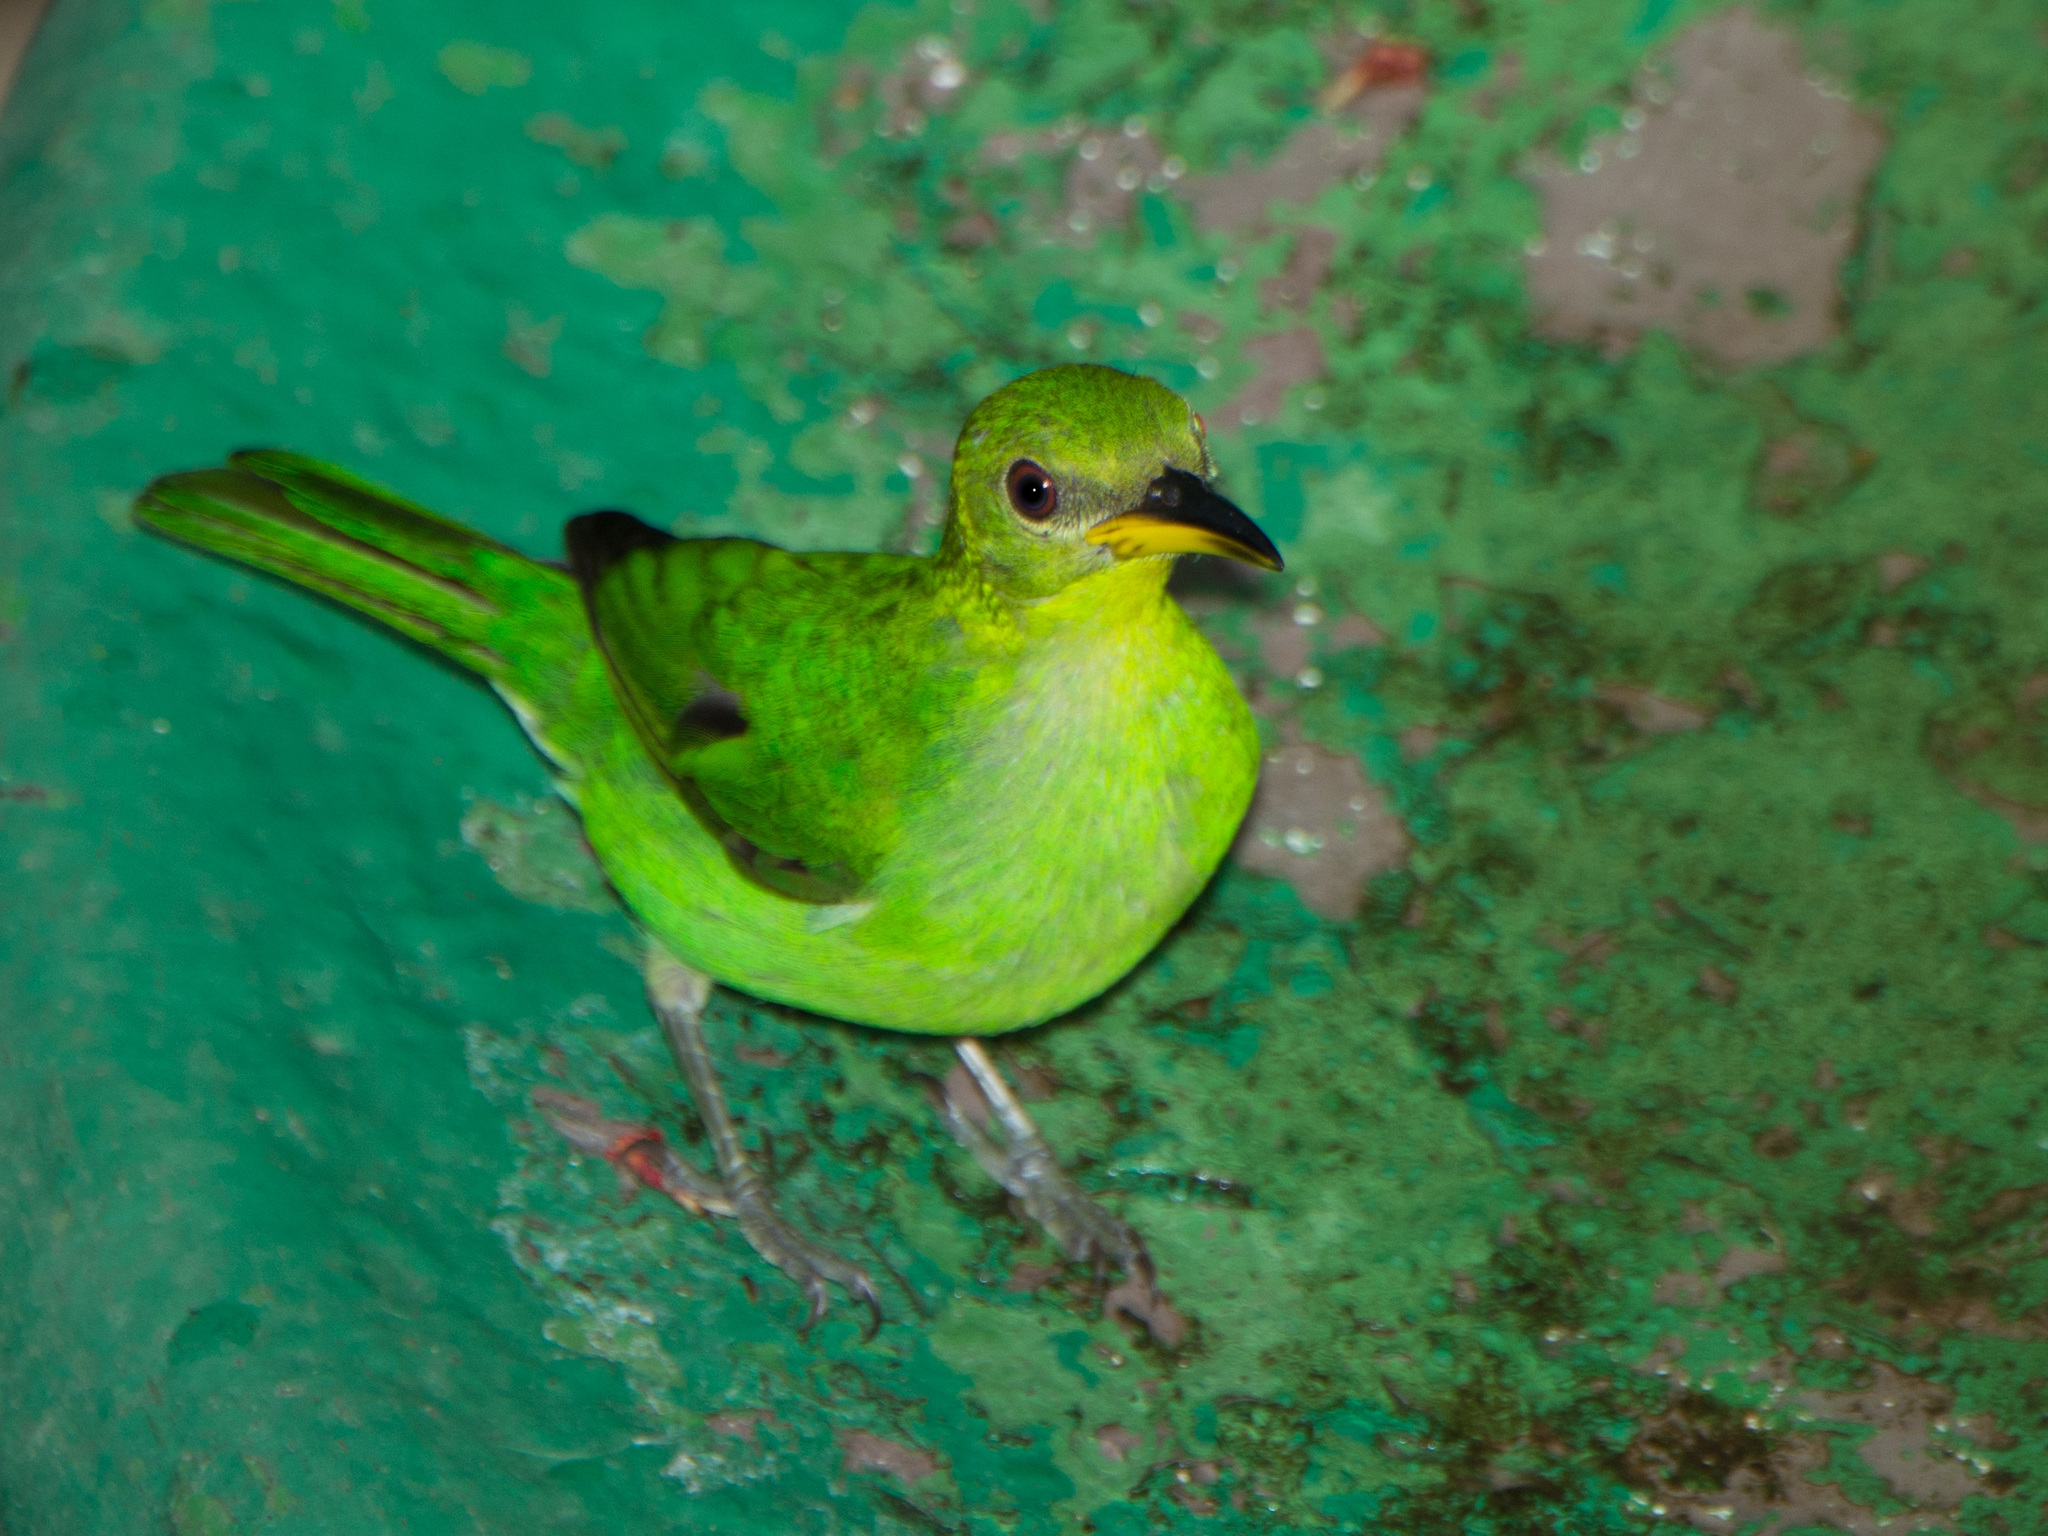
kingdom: Animalia
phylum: Chordata
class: Aves
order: Passeriformes
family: Thraupidae
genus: Chlorophanes
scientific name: Chlorophanes spiza
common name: Green honeycreeper
